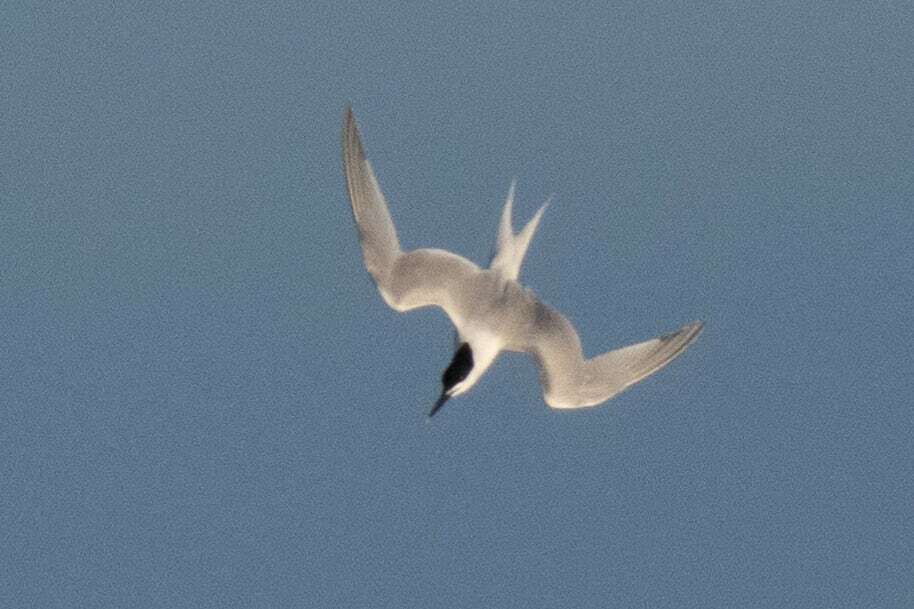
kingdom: Animalia
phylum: Chordata
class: Aves
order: Charadriiformes
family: Laridae
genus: Thalasseus
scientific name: Thalasseus sandvicensis
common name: Sandwich tern
